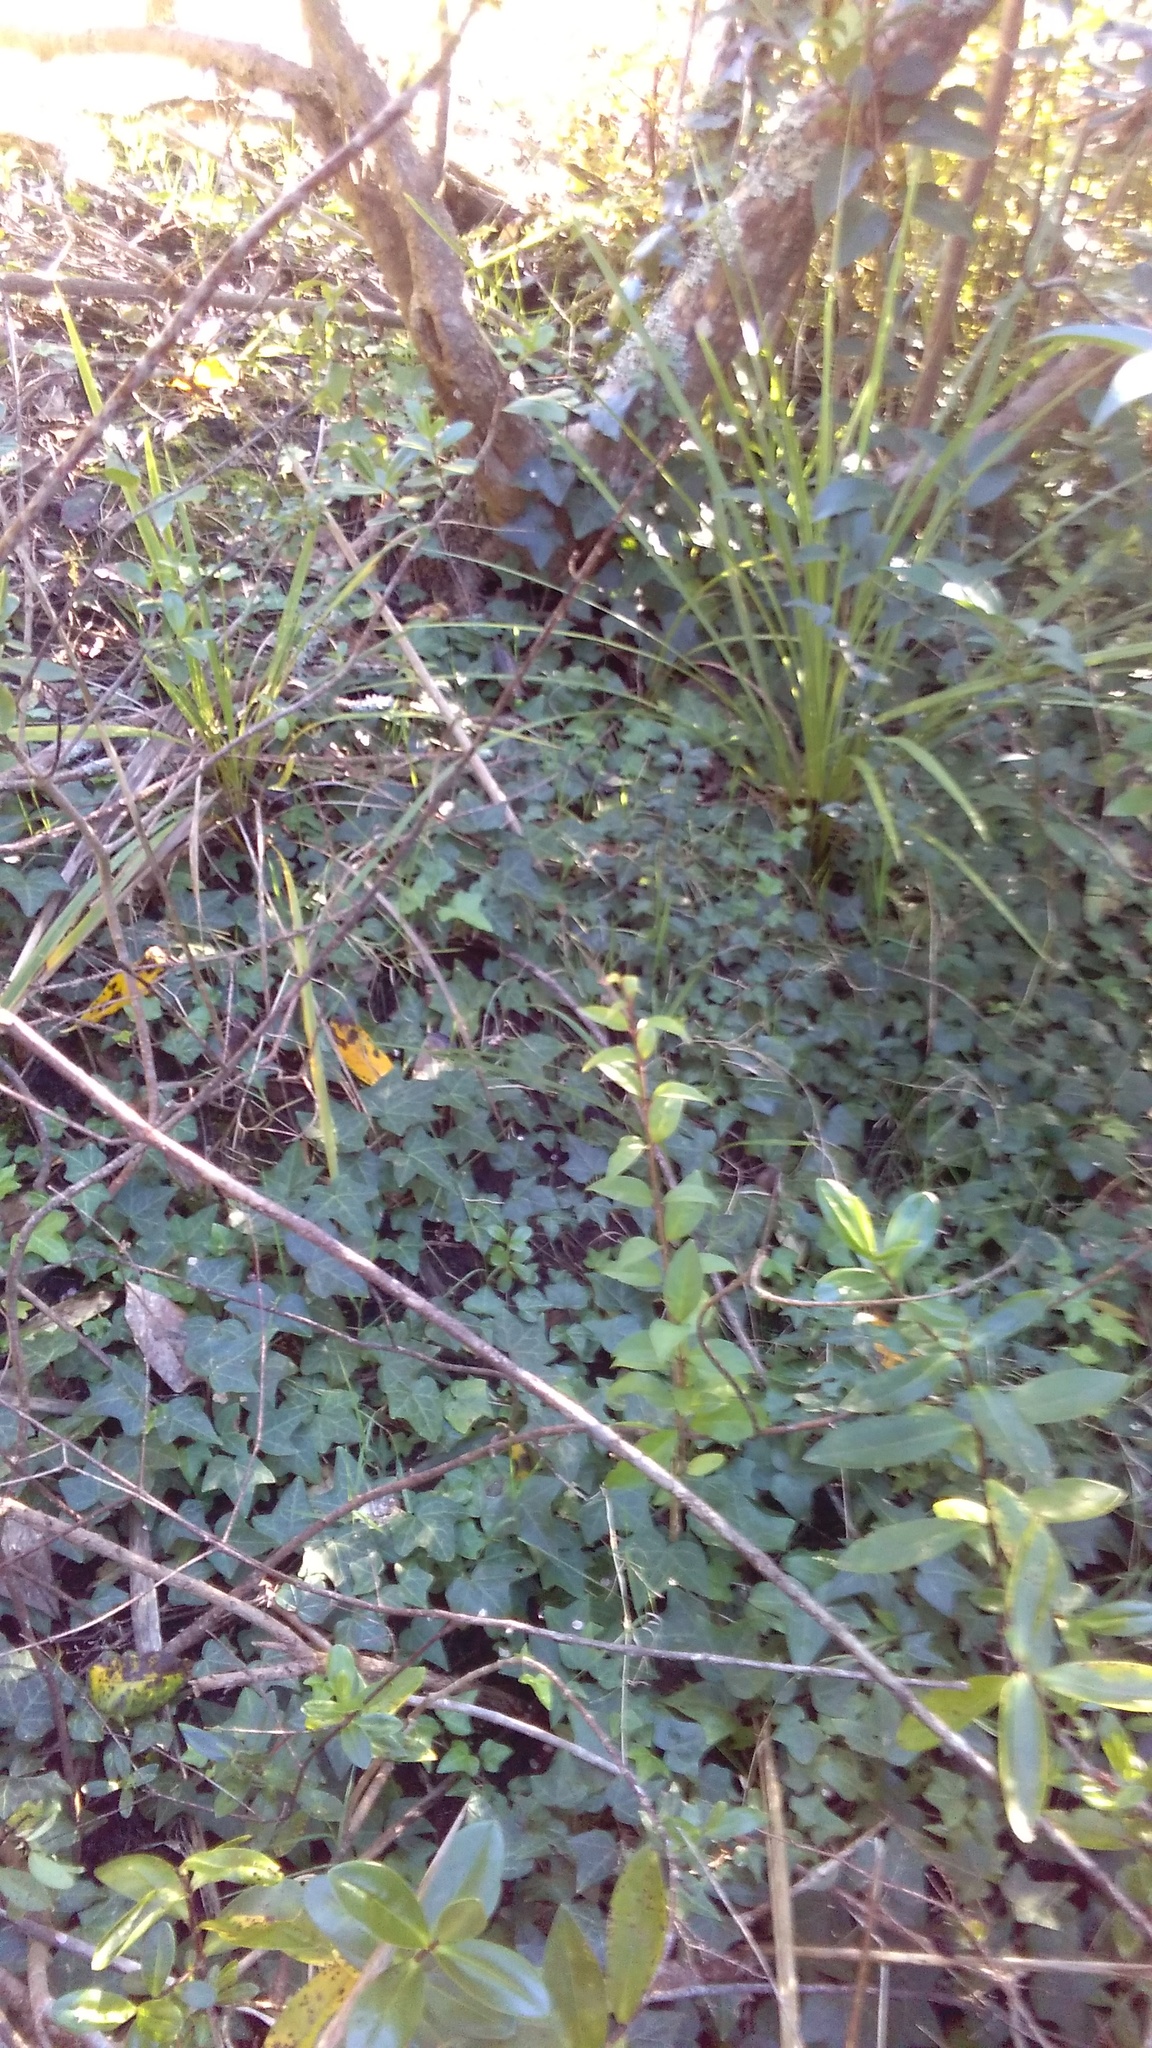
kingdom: Plantae
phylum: Tracheophyta
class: Magnoliopsida
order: Apiales
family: Araliaceae
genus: Hedera
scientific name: Hedera helix
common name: Ivy
